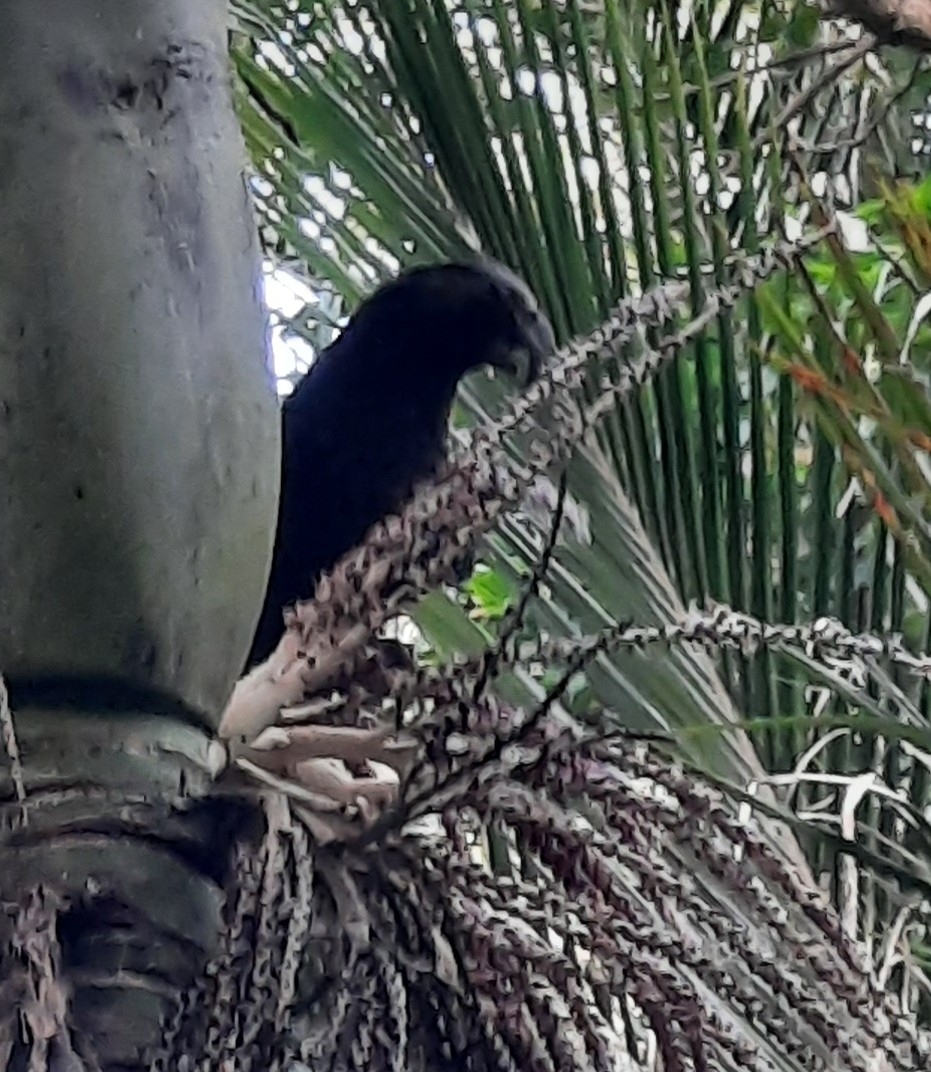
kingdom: Animalia
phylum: Chordata
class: Aves
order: Psittaciformes
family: Psittacidae
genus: Nestor
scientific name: Nestor meridionalis
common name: New zealand kaka
